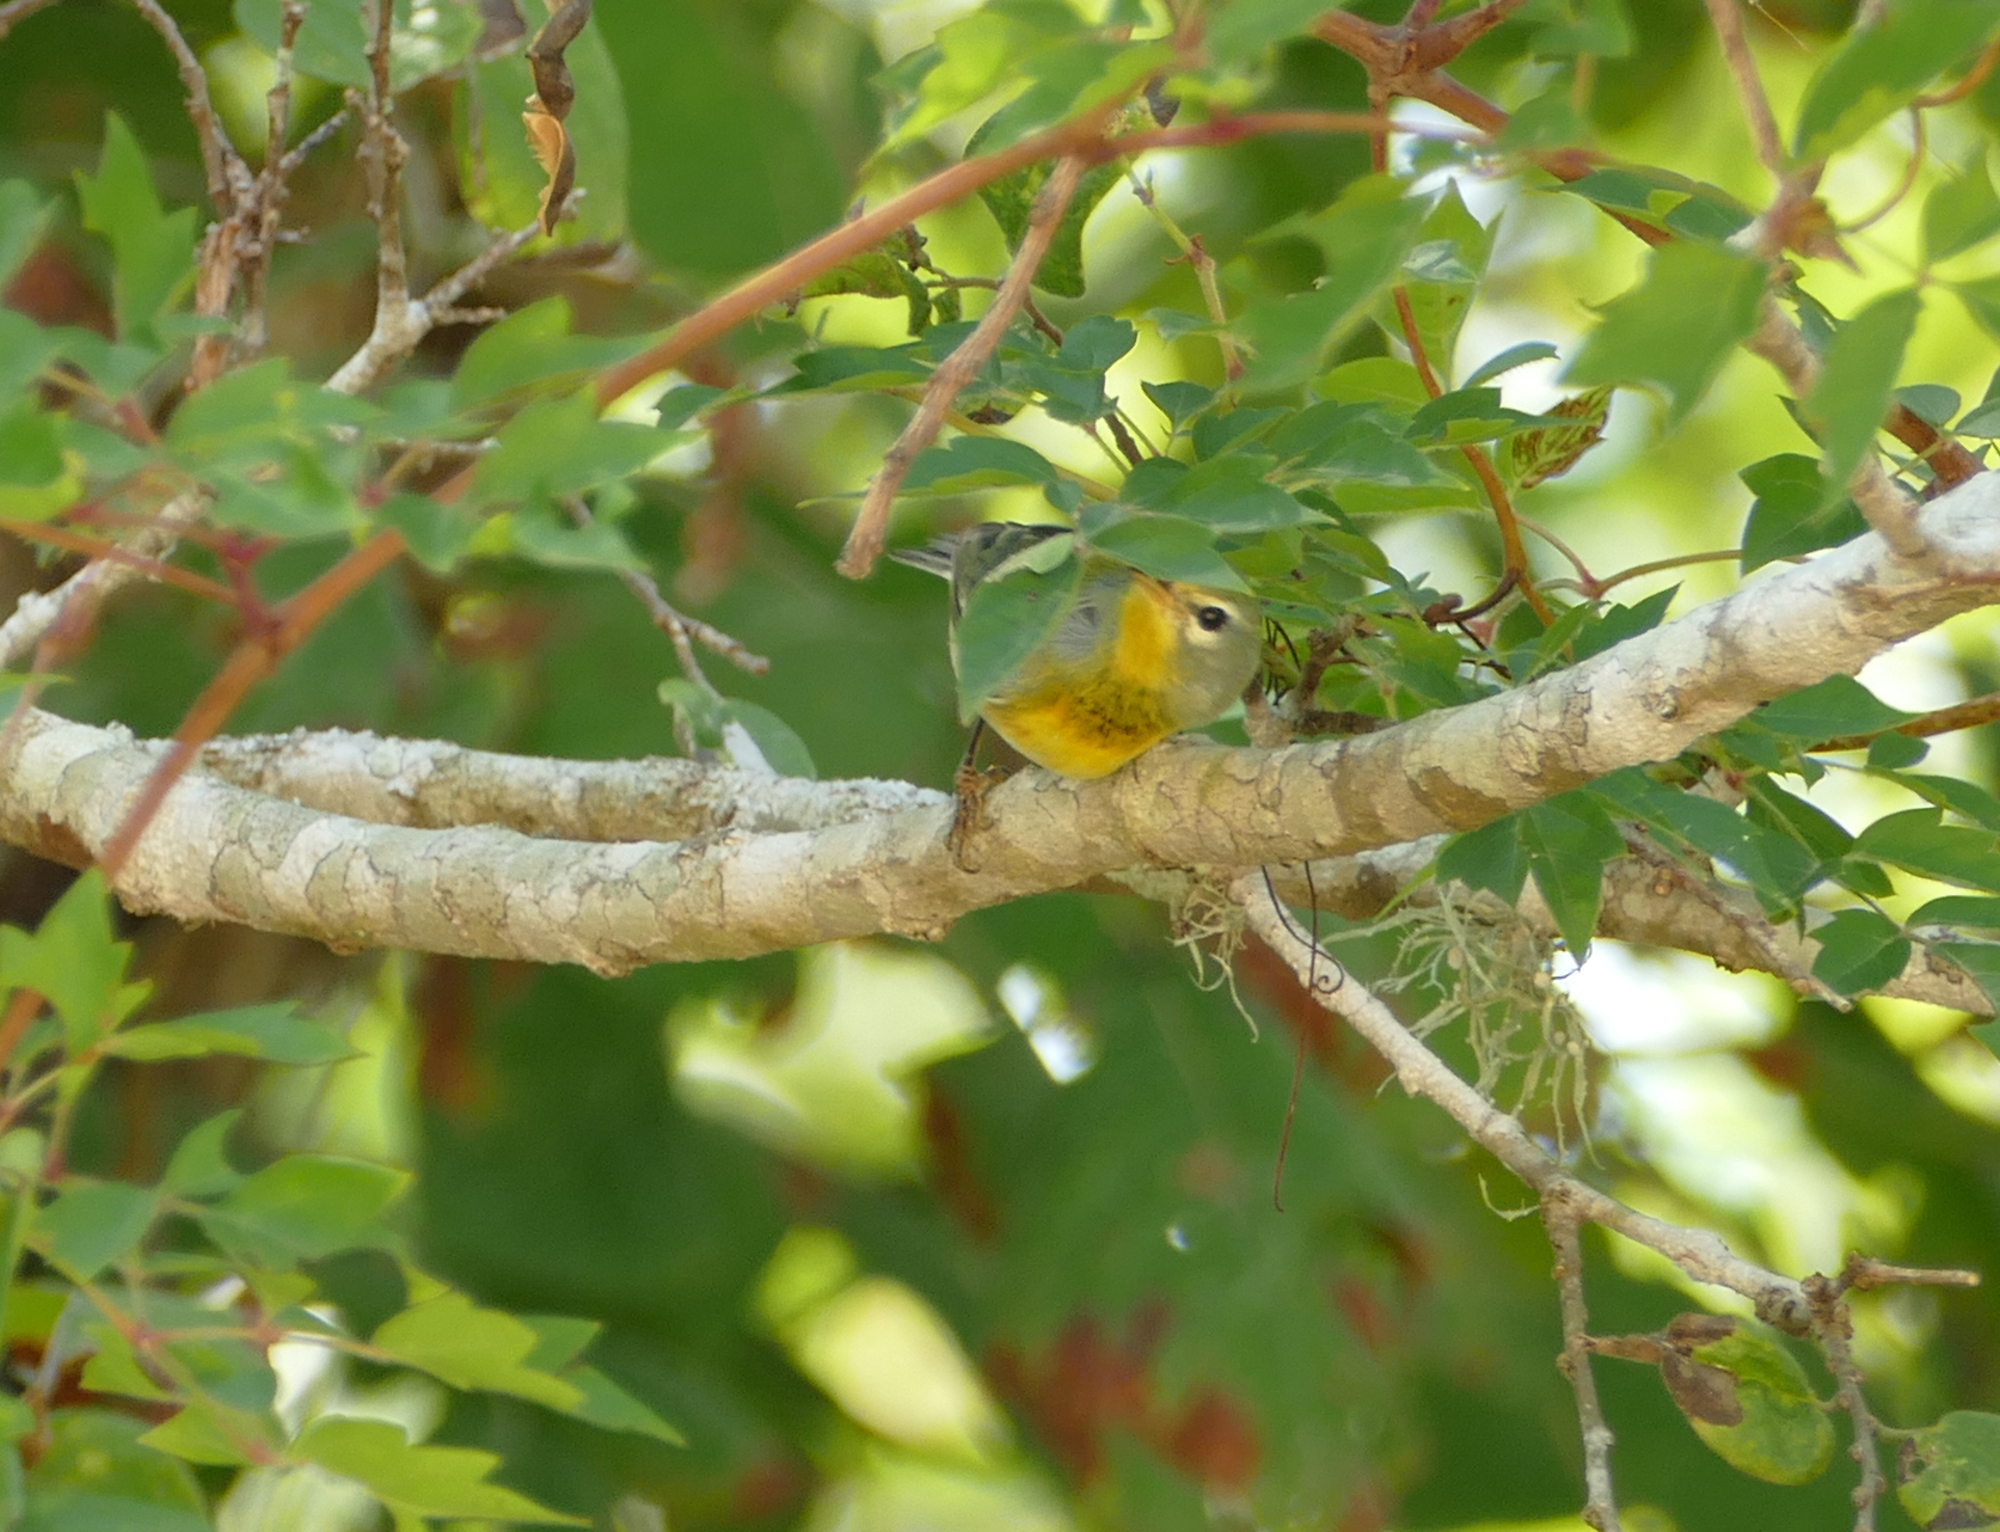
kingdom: Animalia
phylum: Chordata
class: Aves
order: Passeriformes
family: Parulidae
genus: Setophaga
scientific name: Setophaga americana
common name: Northern parula
